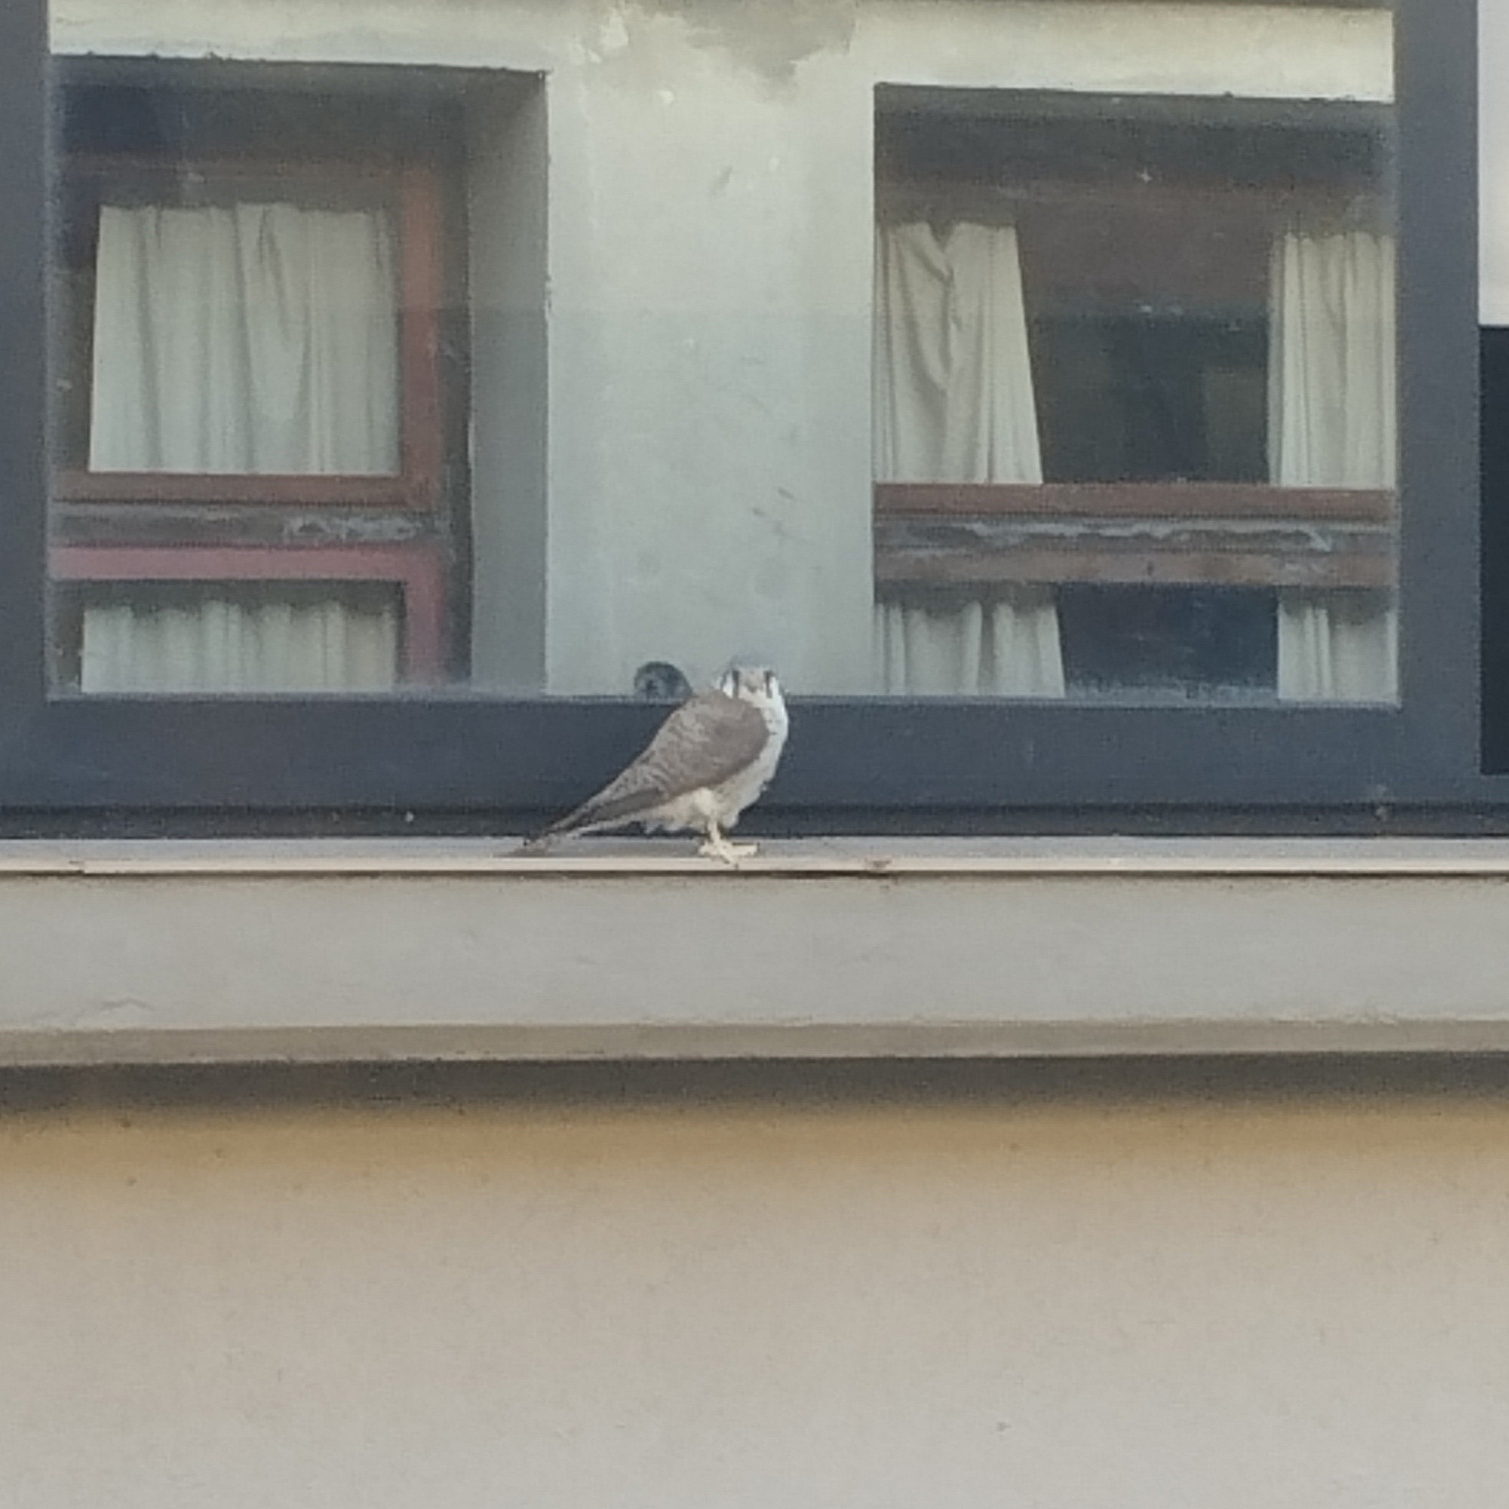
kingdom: Animalia
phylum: Chordata
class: Aves
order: Falconiformes
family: Falconidae
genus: Falco
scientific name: Falco sparverius
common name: American kestrel
